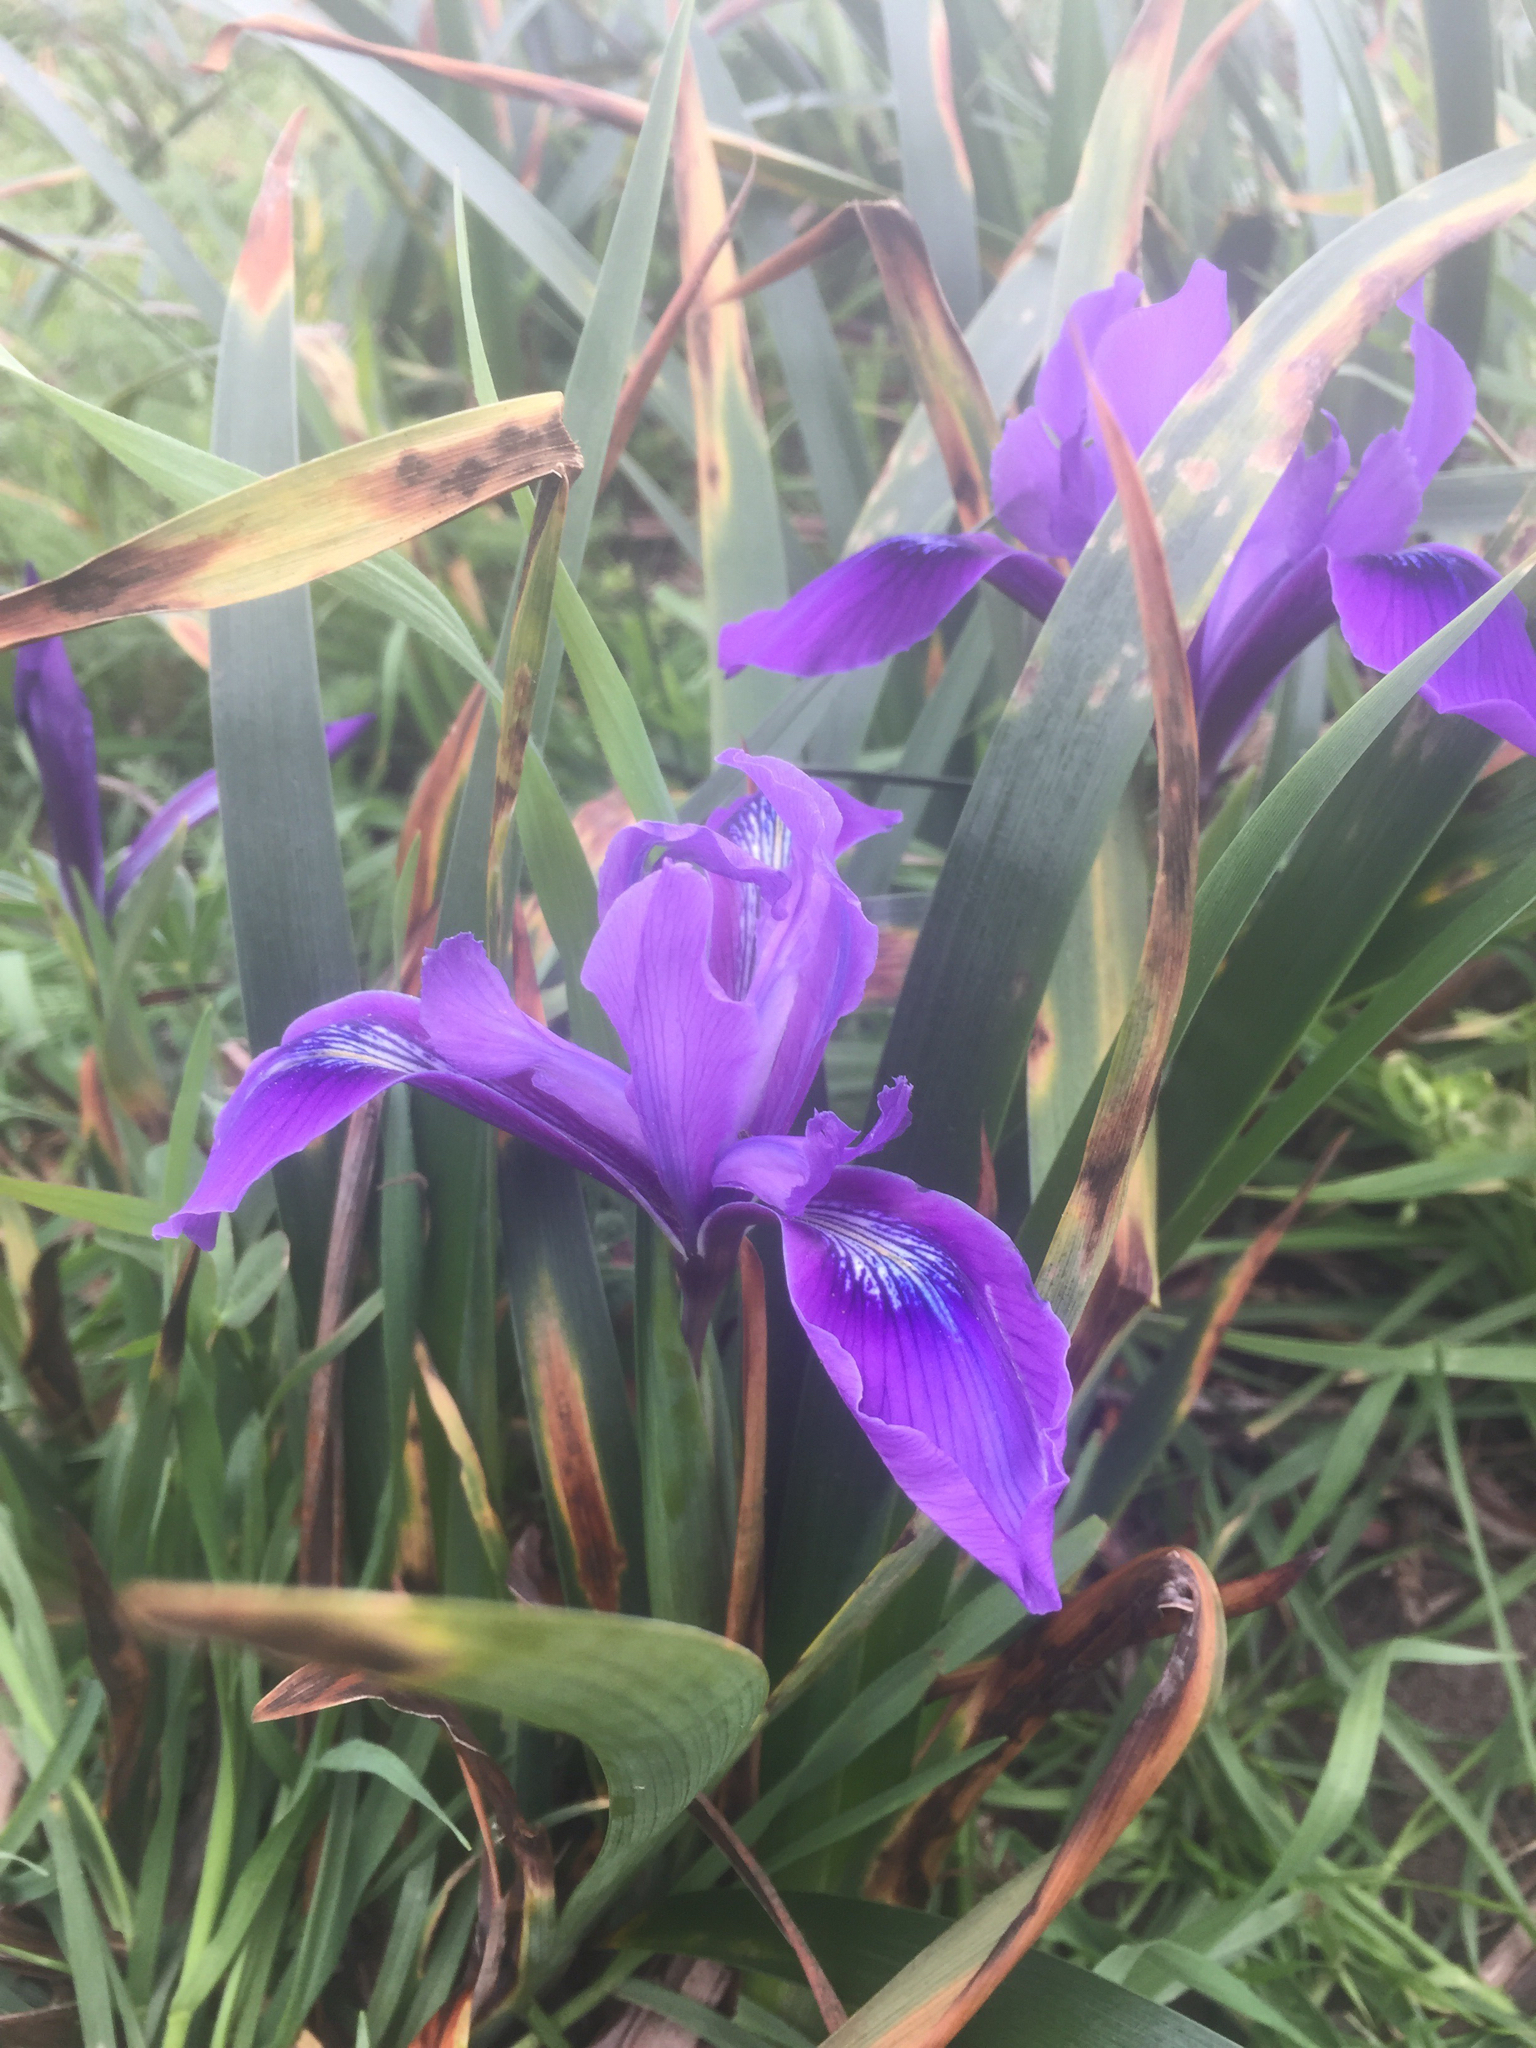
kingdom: Plantae
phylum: Tracheophyta
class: Liliopsida
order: Asparagales
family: Iridaceae
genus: Iris
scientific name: Iris douglasiana
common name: Marin iris
